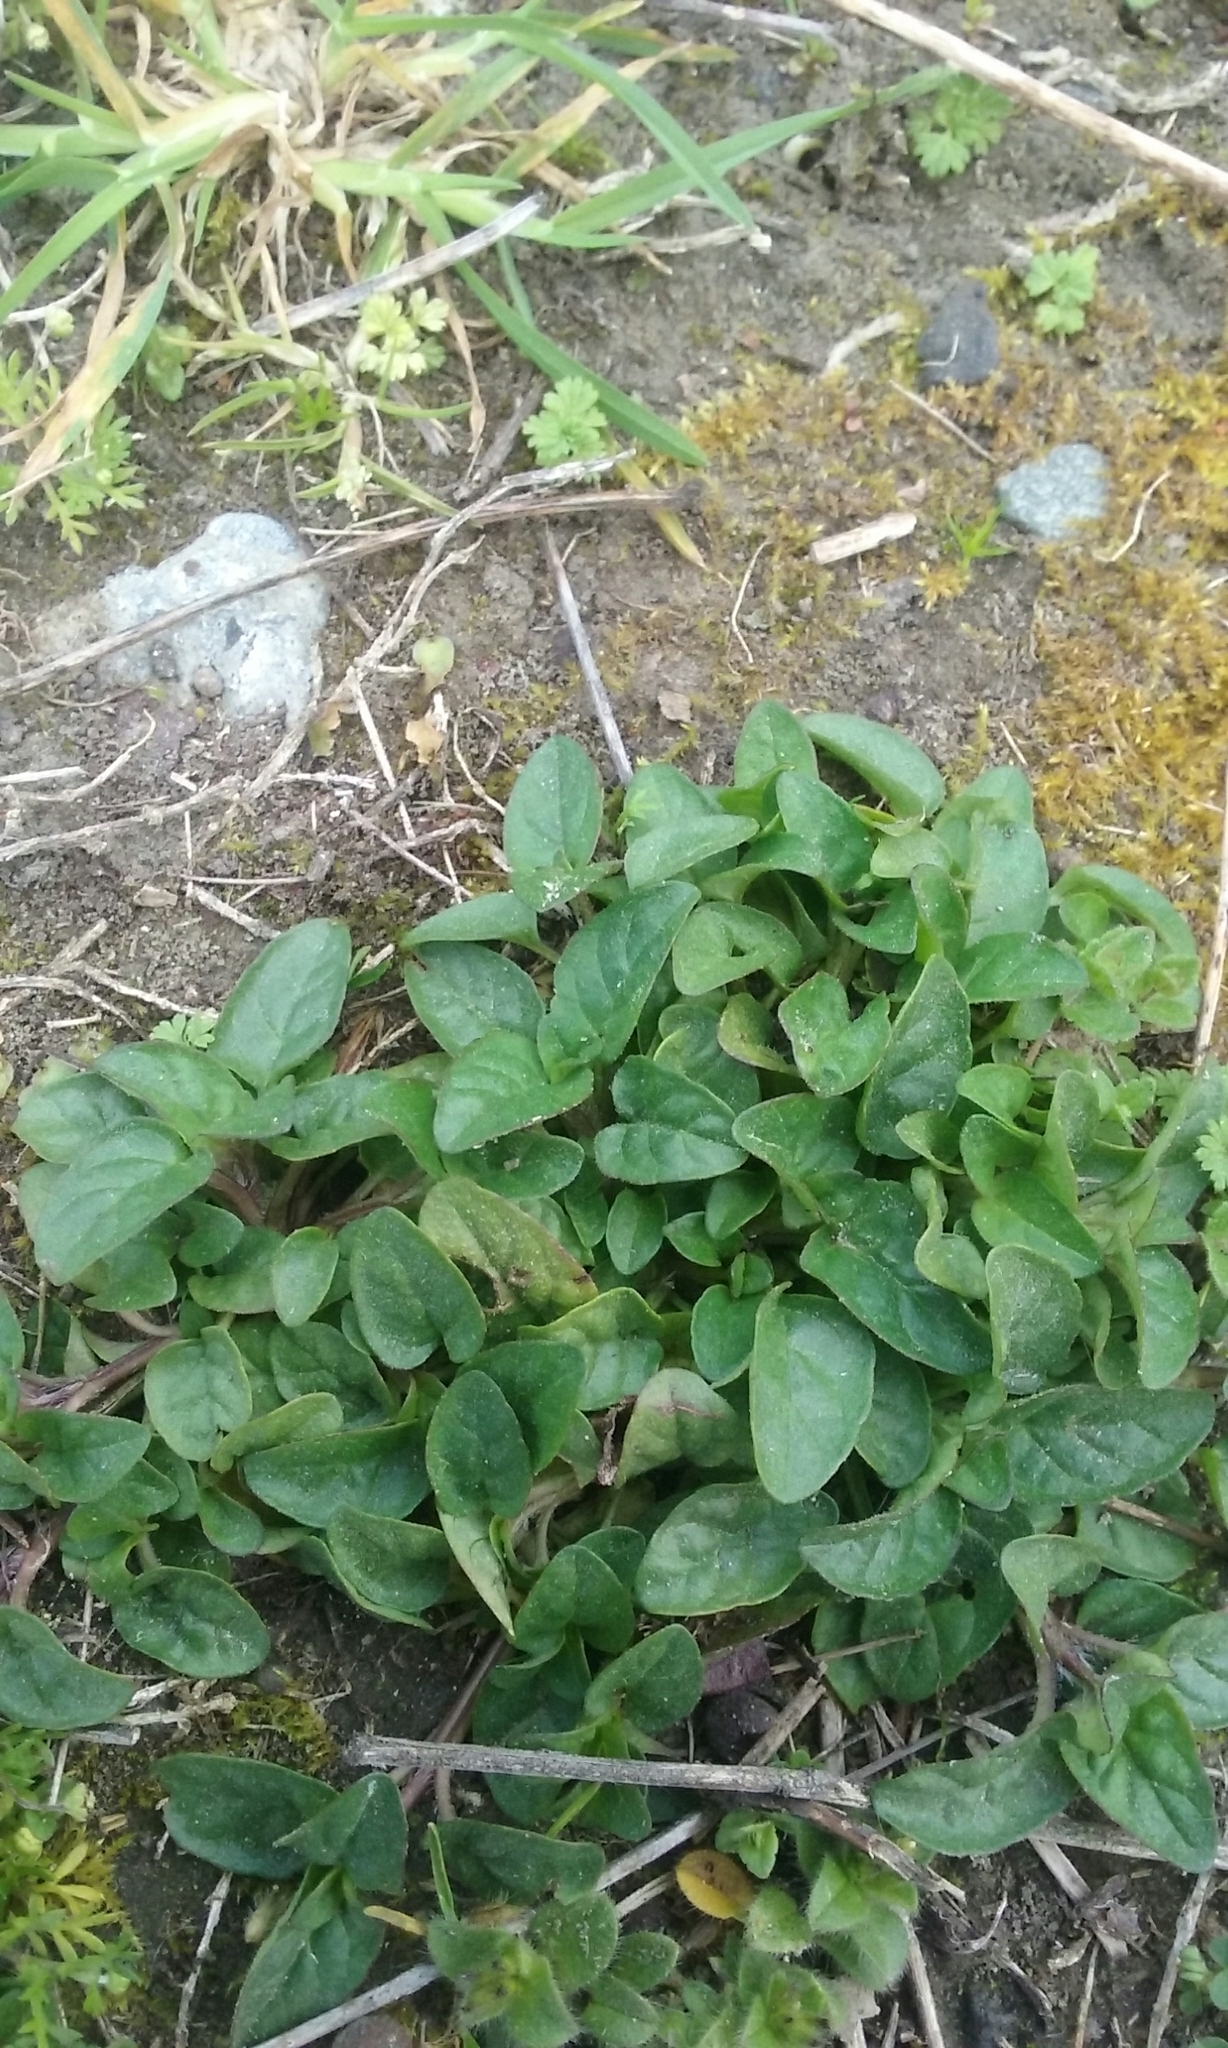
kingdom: Plantae
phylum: Tracheophyta
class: Magnoliopsida
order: Lamiales
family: Lamiaceae
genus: Prunella
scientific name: Prunella vulgaris
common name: Heal-all
